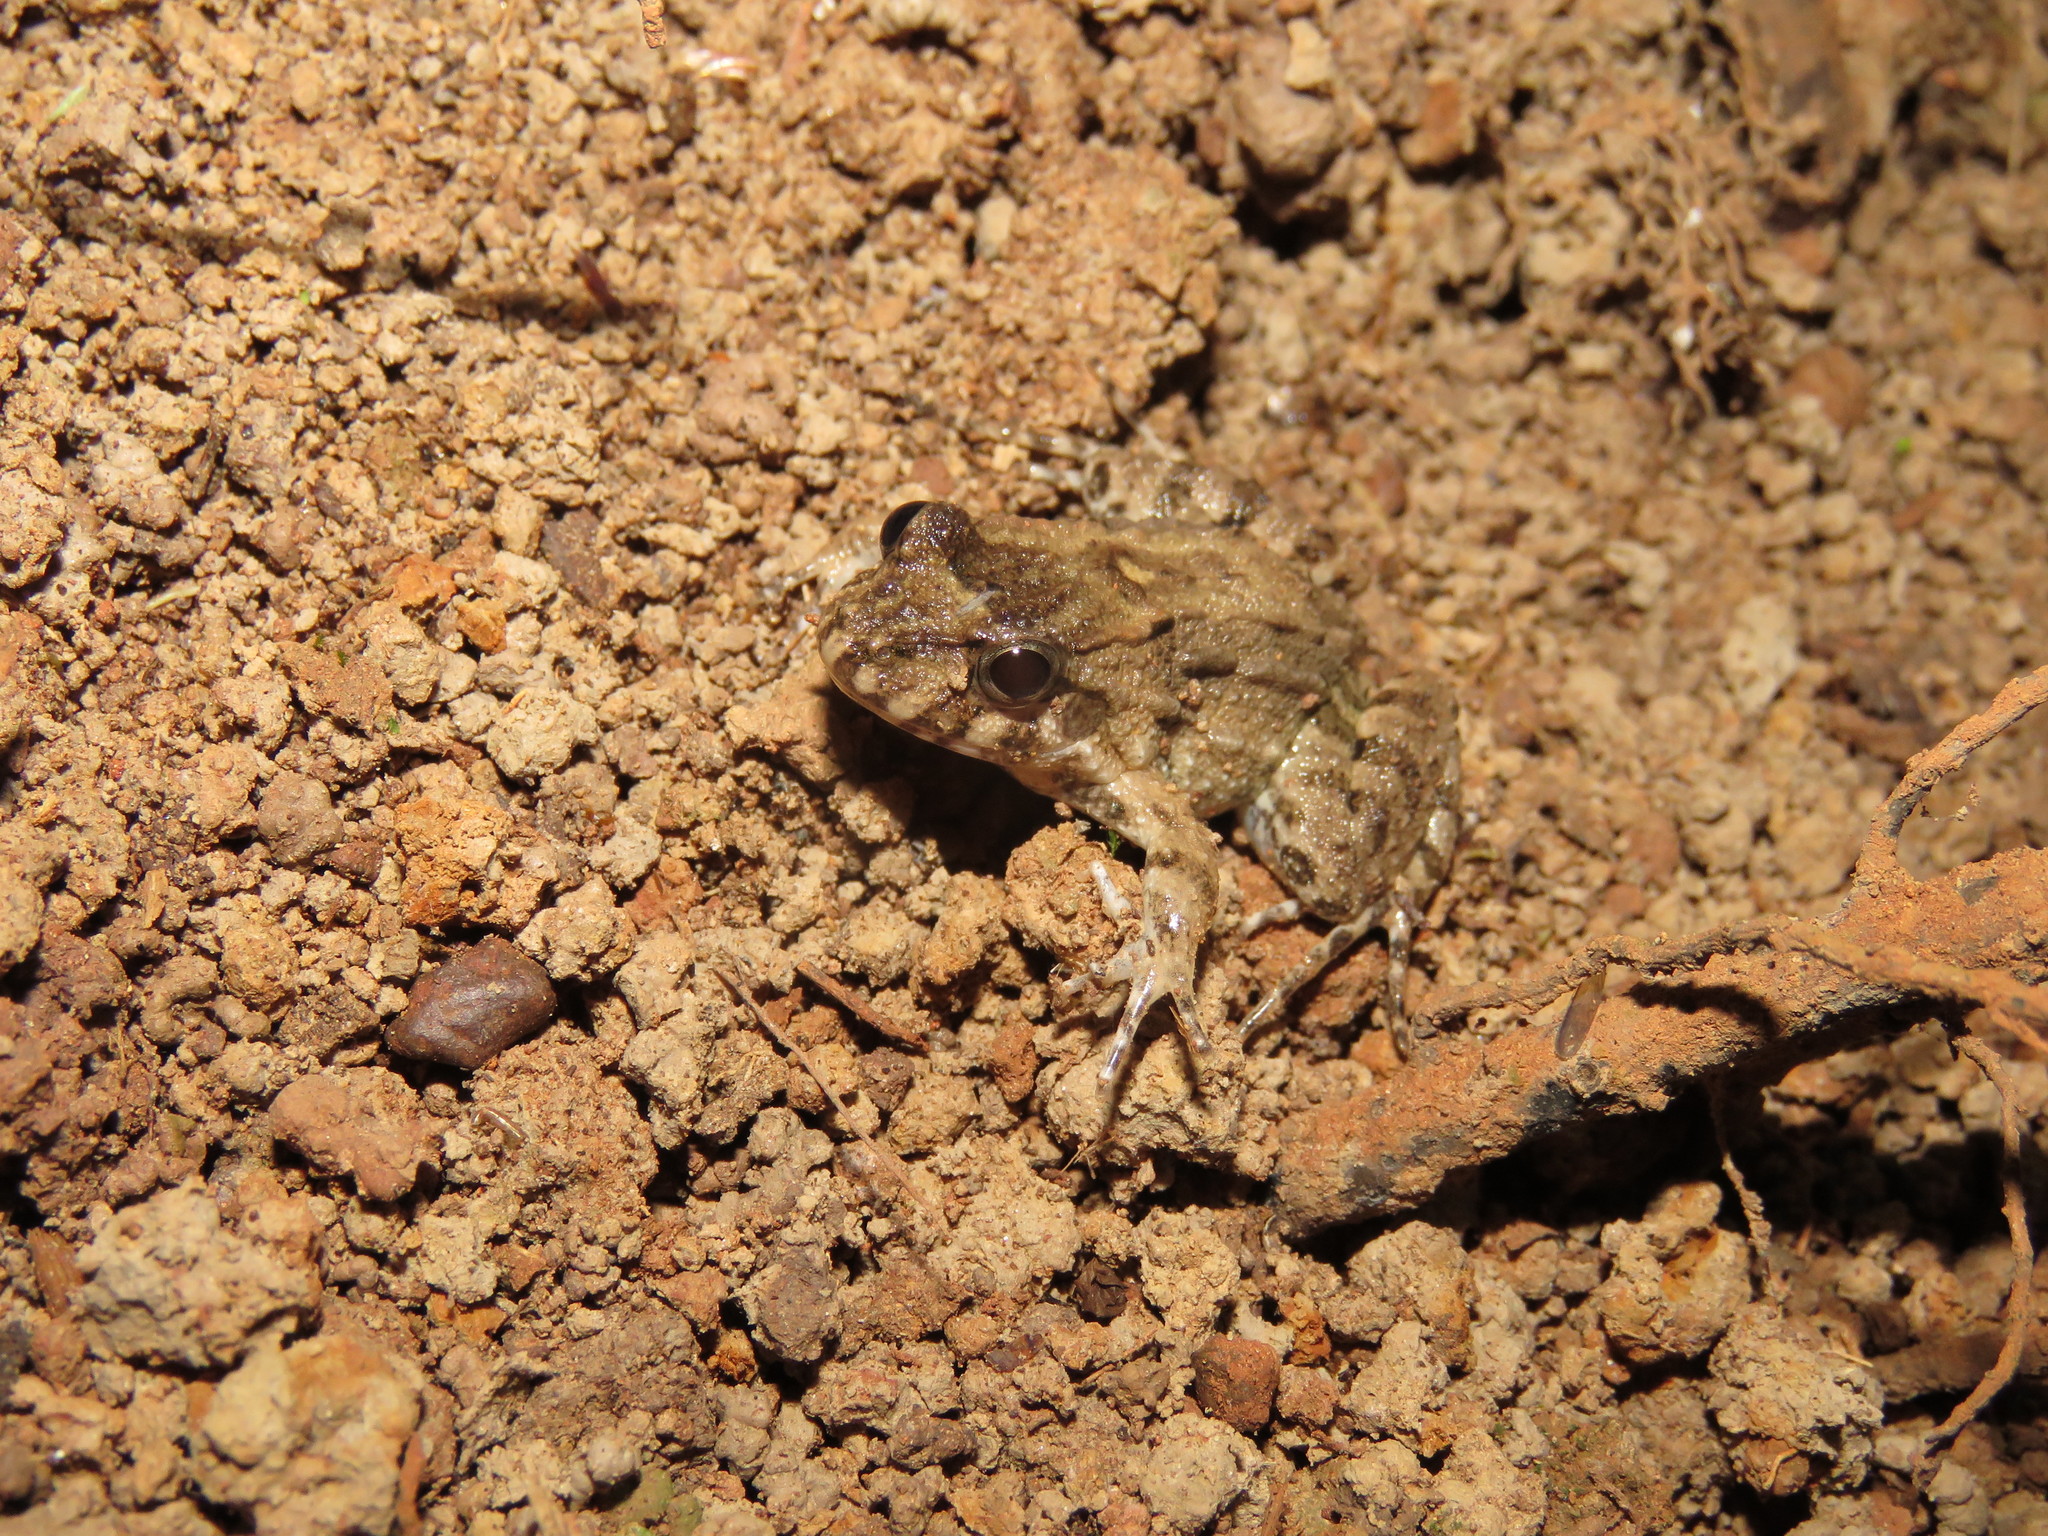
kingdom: Animalia
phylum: Chordata
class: Amphibia
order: Anura
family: Leptodactylidae
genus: Leptodactylus
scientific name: Leptodactylus leptodactyloides
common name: Common thin-toed frog
